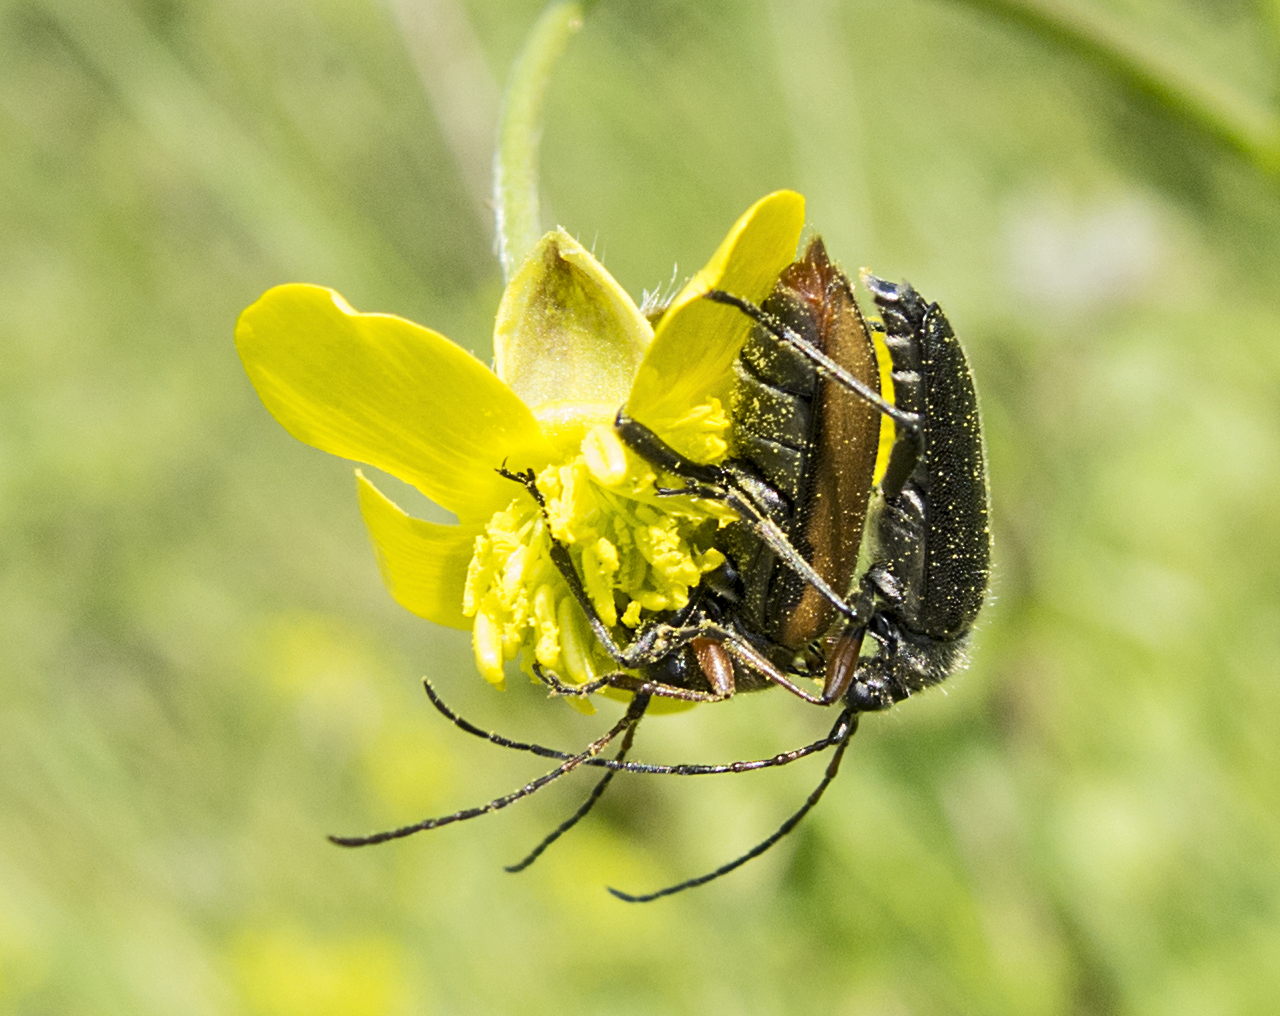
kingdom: Animalia
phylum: Arthropoda
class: Insecta
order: Coleoptera
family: Cerambycidae
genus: Cortodera
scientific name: Cortodera flavimana
